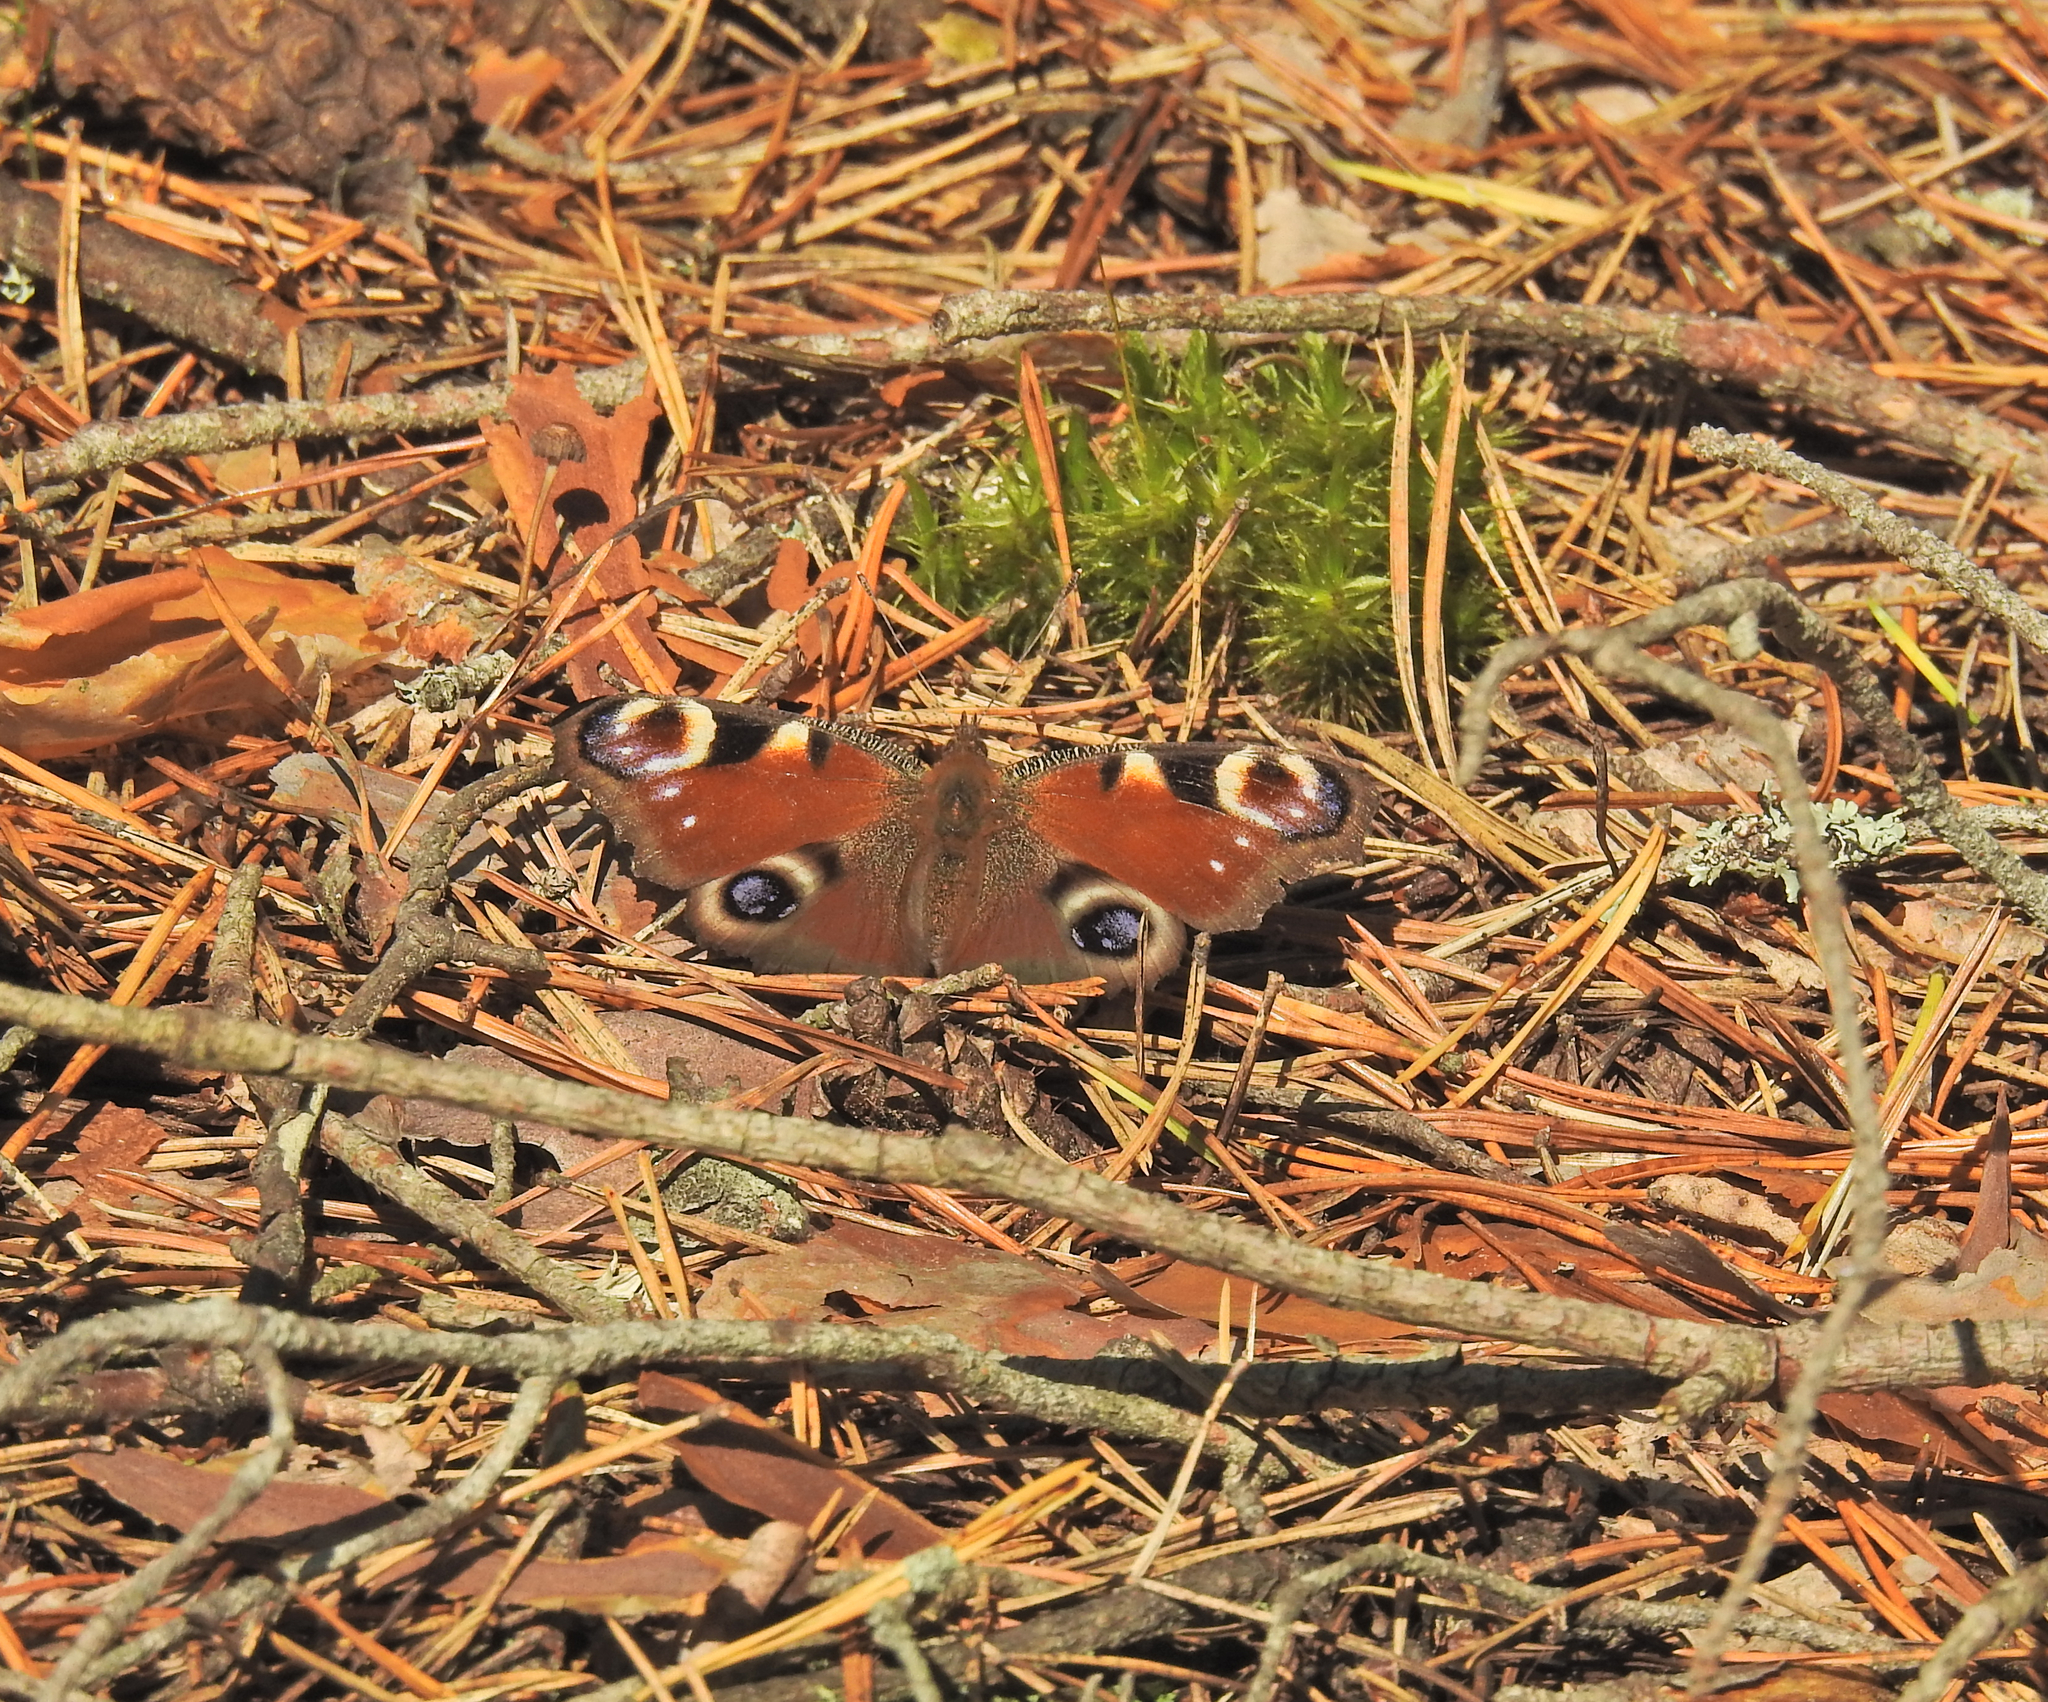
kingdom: Animalia
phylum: Arthropoda
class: Insecta
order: Lepidoptera
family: Nymphalidae
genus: Aglais
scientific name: Aglais io
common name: Peacock
